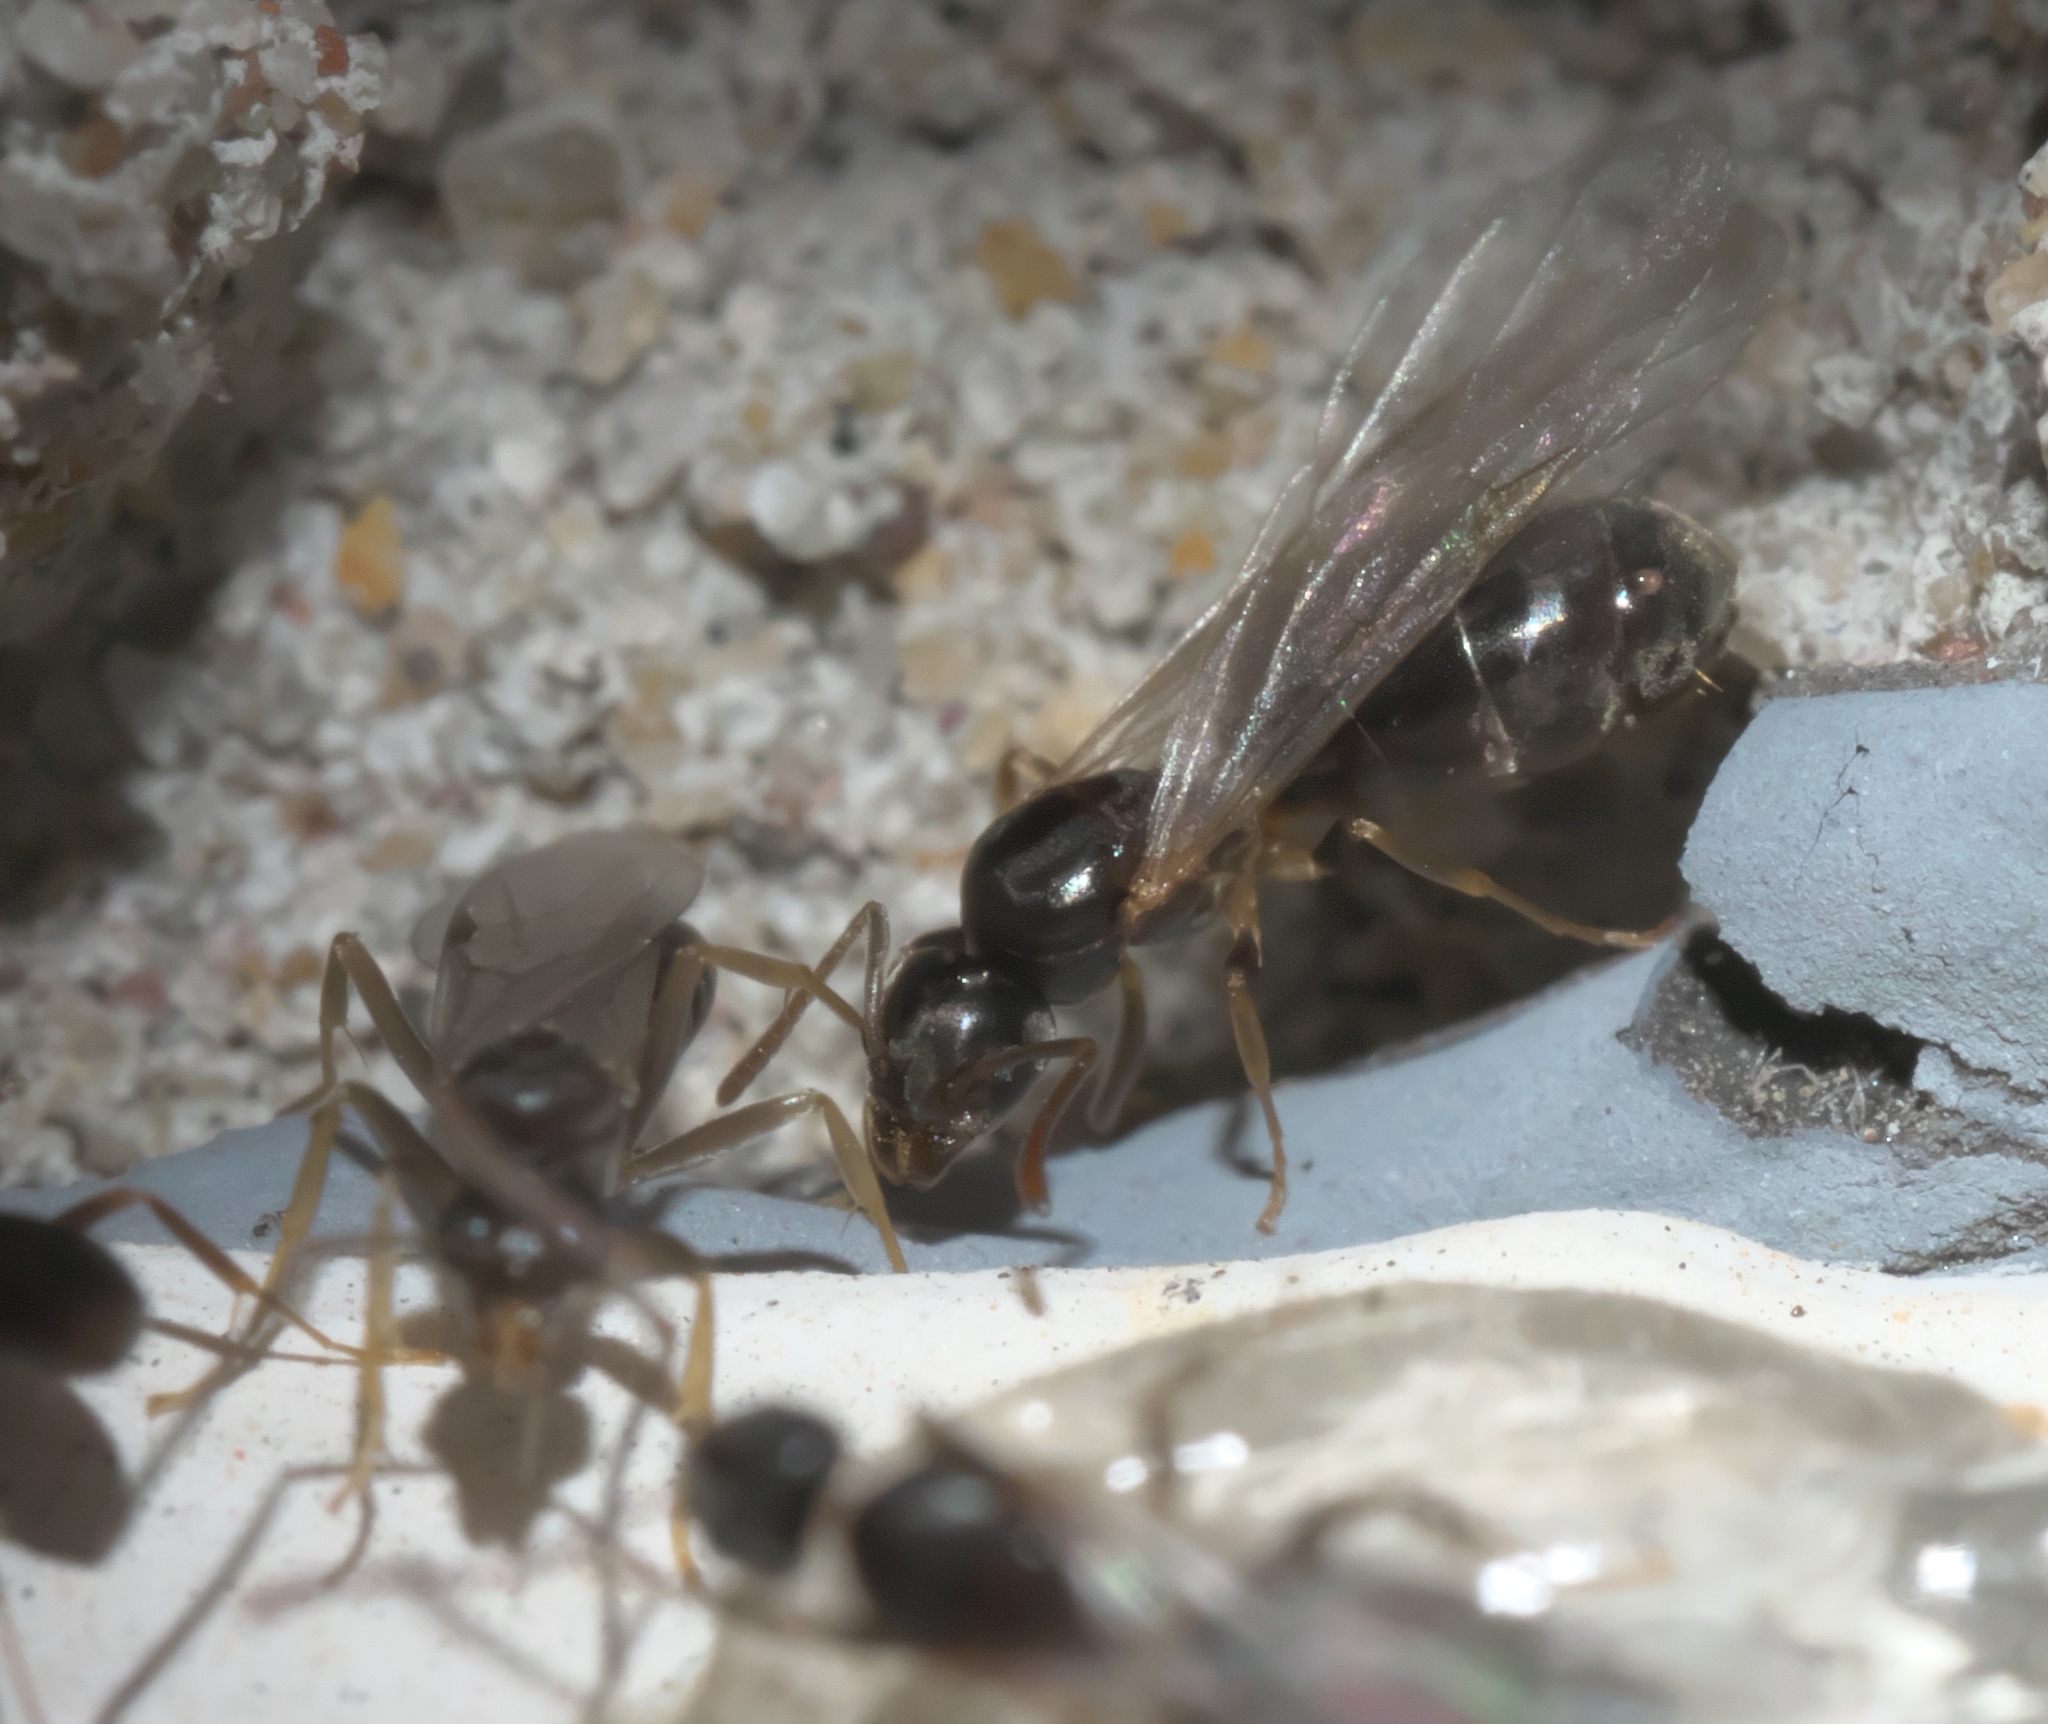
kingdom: Animalia
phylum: Arthropoda
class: Insecta
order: Hymenoptera
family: Formicidae
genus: Tapinoma
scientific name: Tapinoma sessile
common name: Odorous house ant
